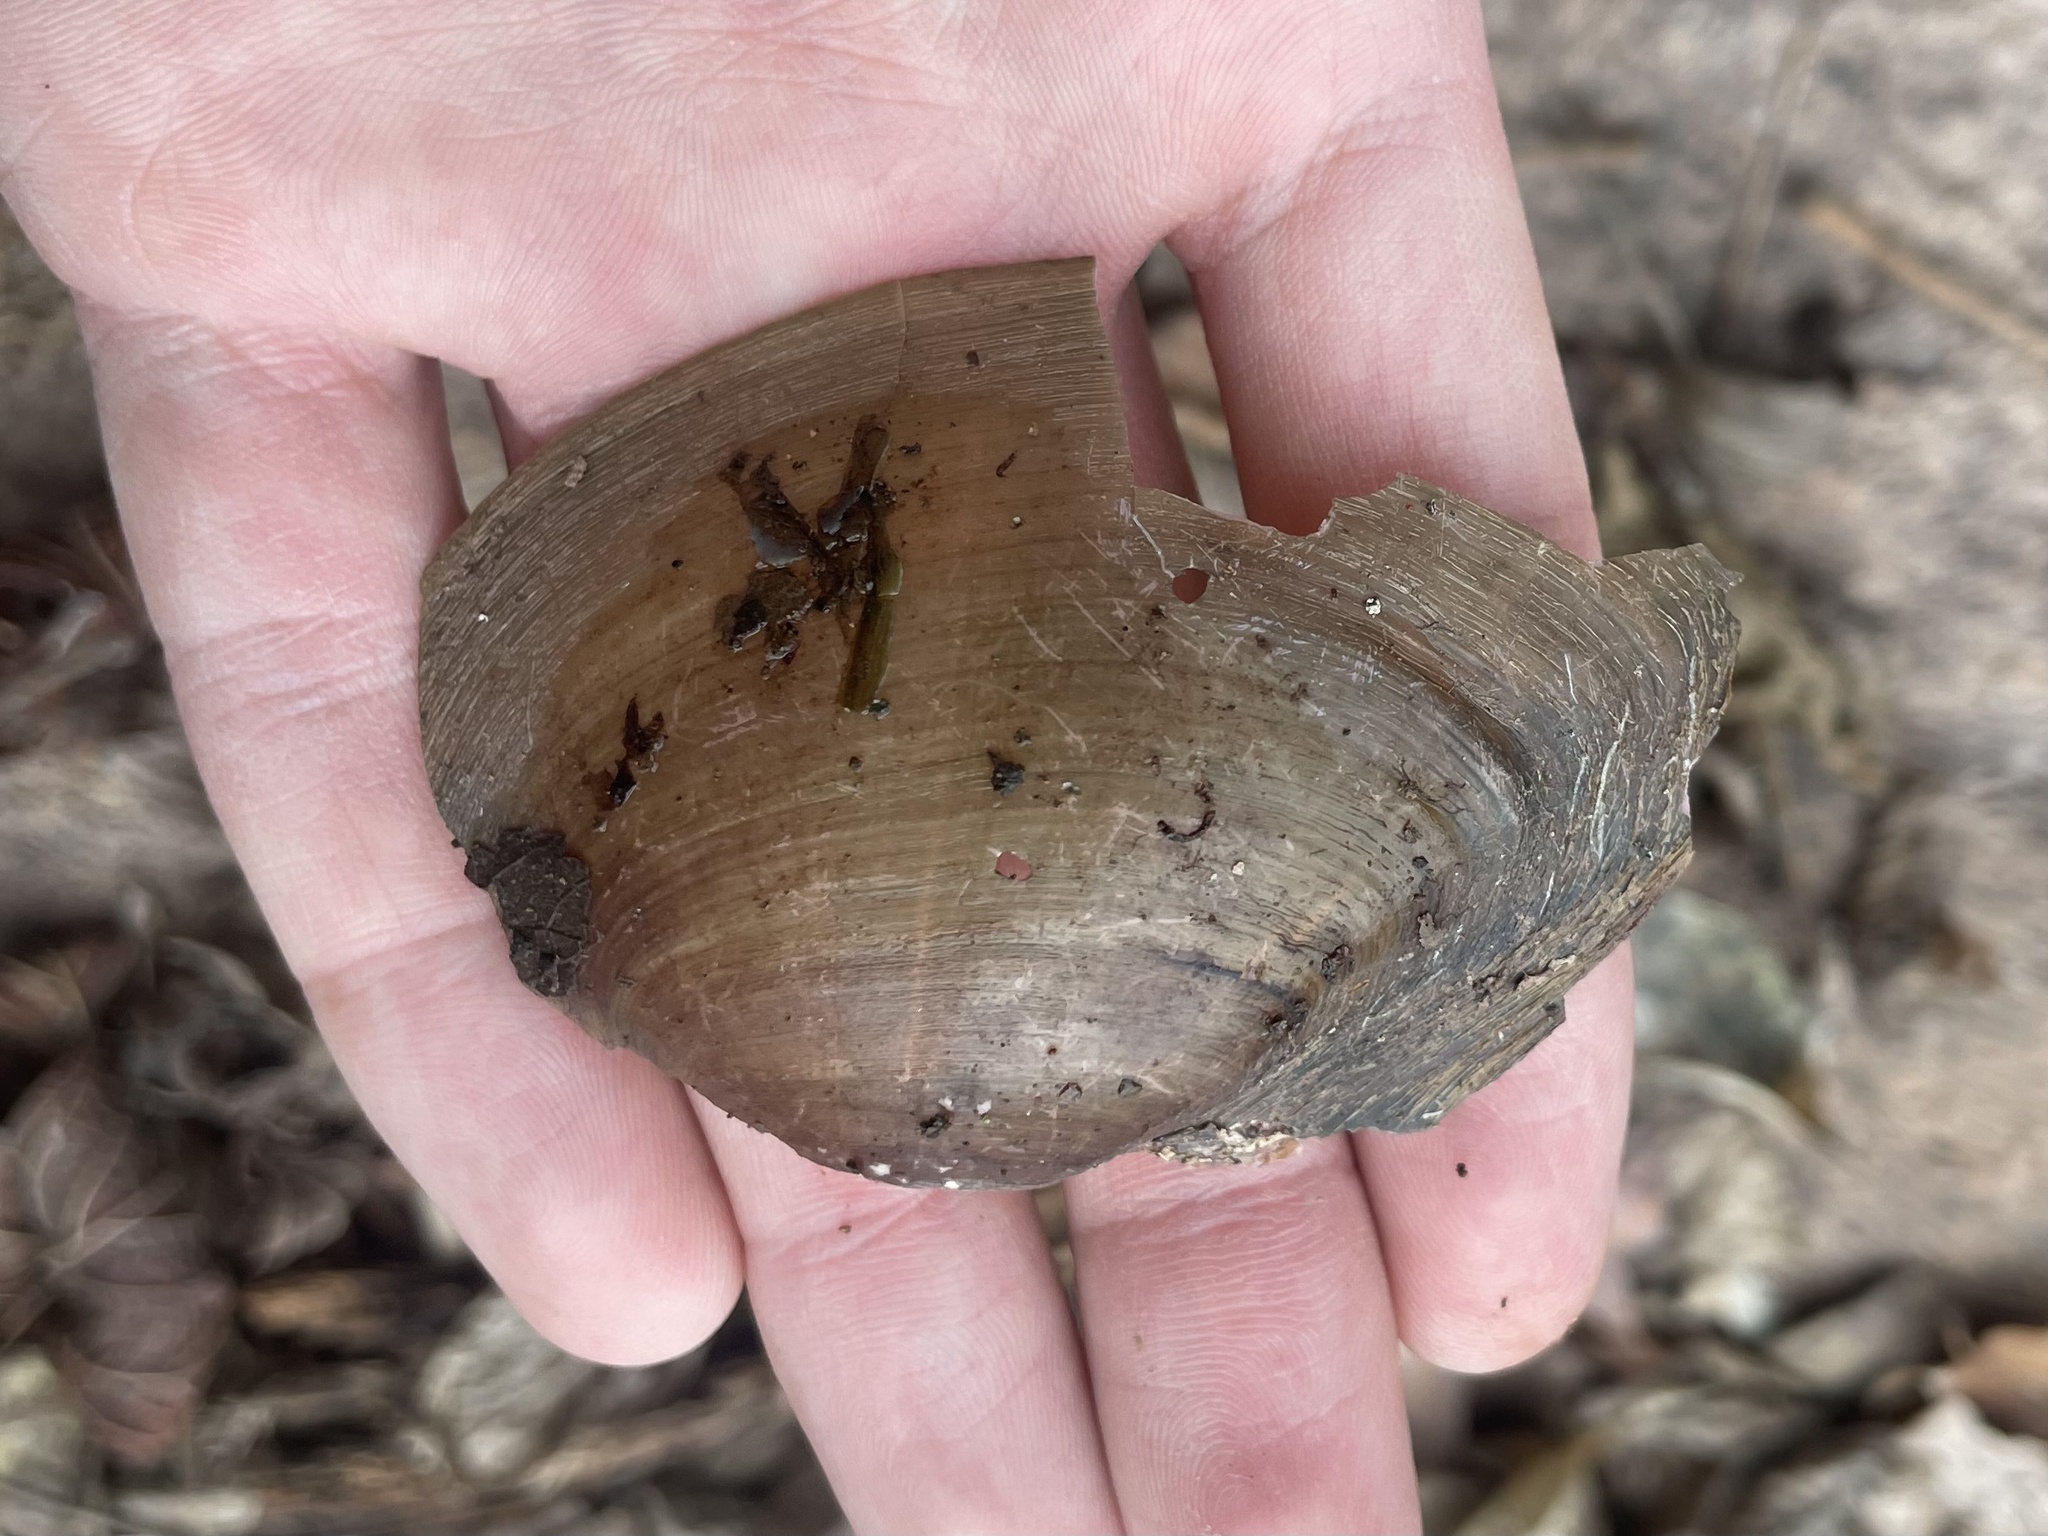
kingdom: Animalia
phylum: Mollusca
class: Bivalvia
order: Unionida
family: Unionidae
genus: Pyganodon
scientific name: Pyganodon grandis
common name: Giant floater
